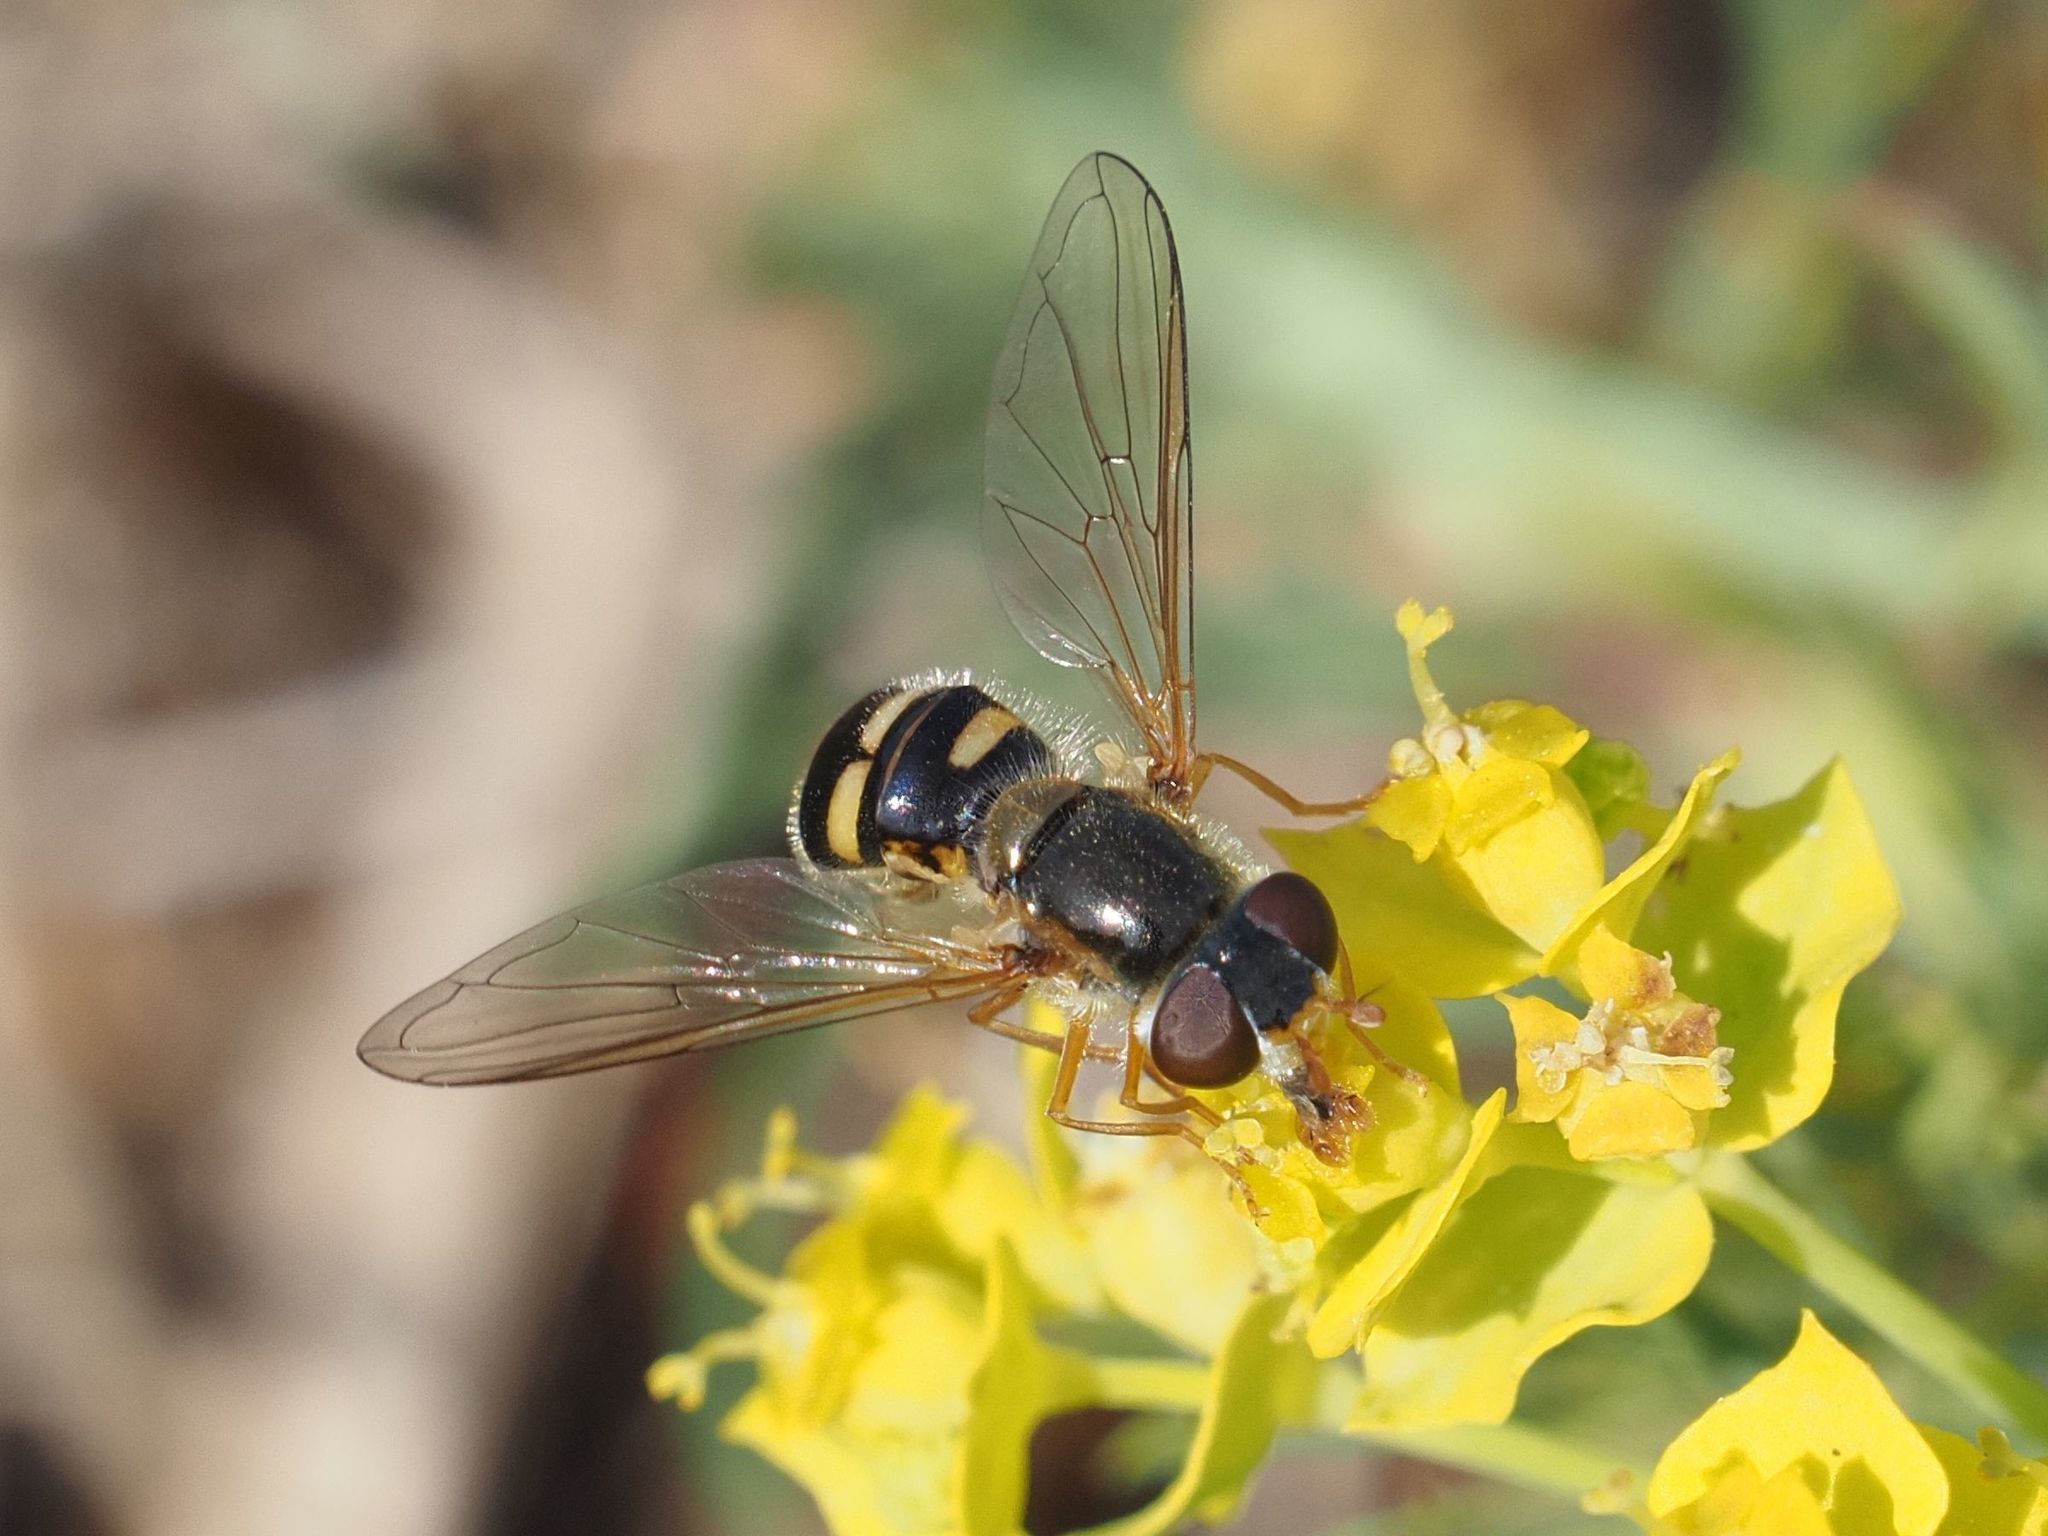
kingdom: Animalia
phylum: Arthropoda
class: Insecta
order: Diptera
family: Syrphidae
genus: Epistrophella
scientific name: Epistrophella euchromus
